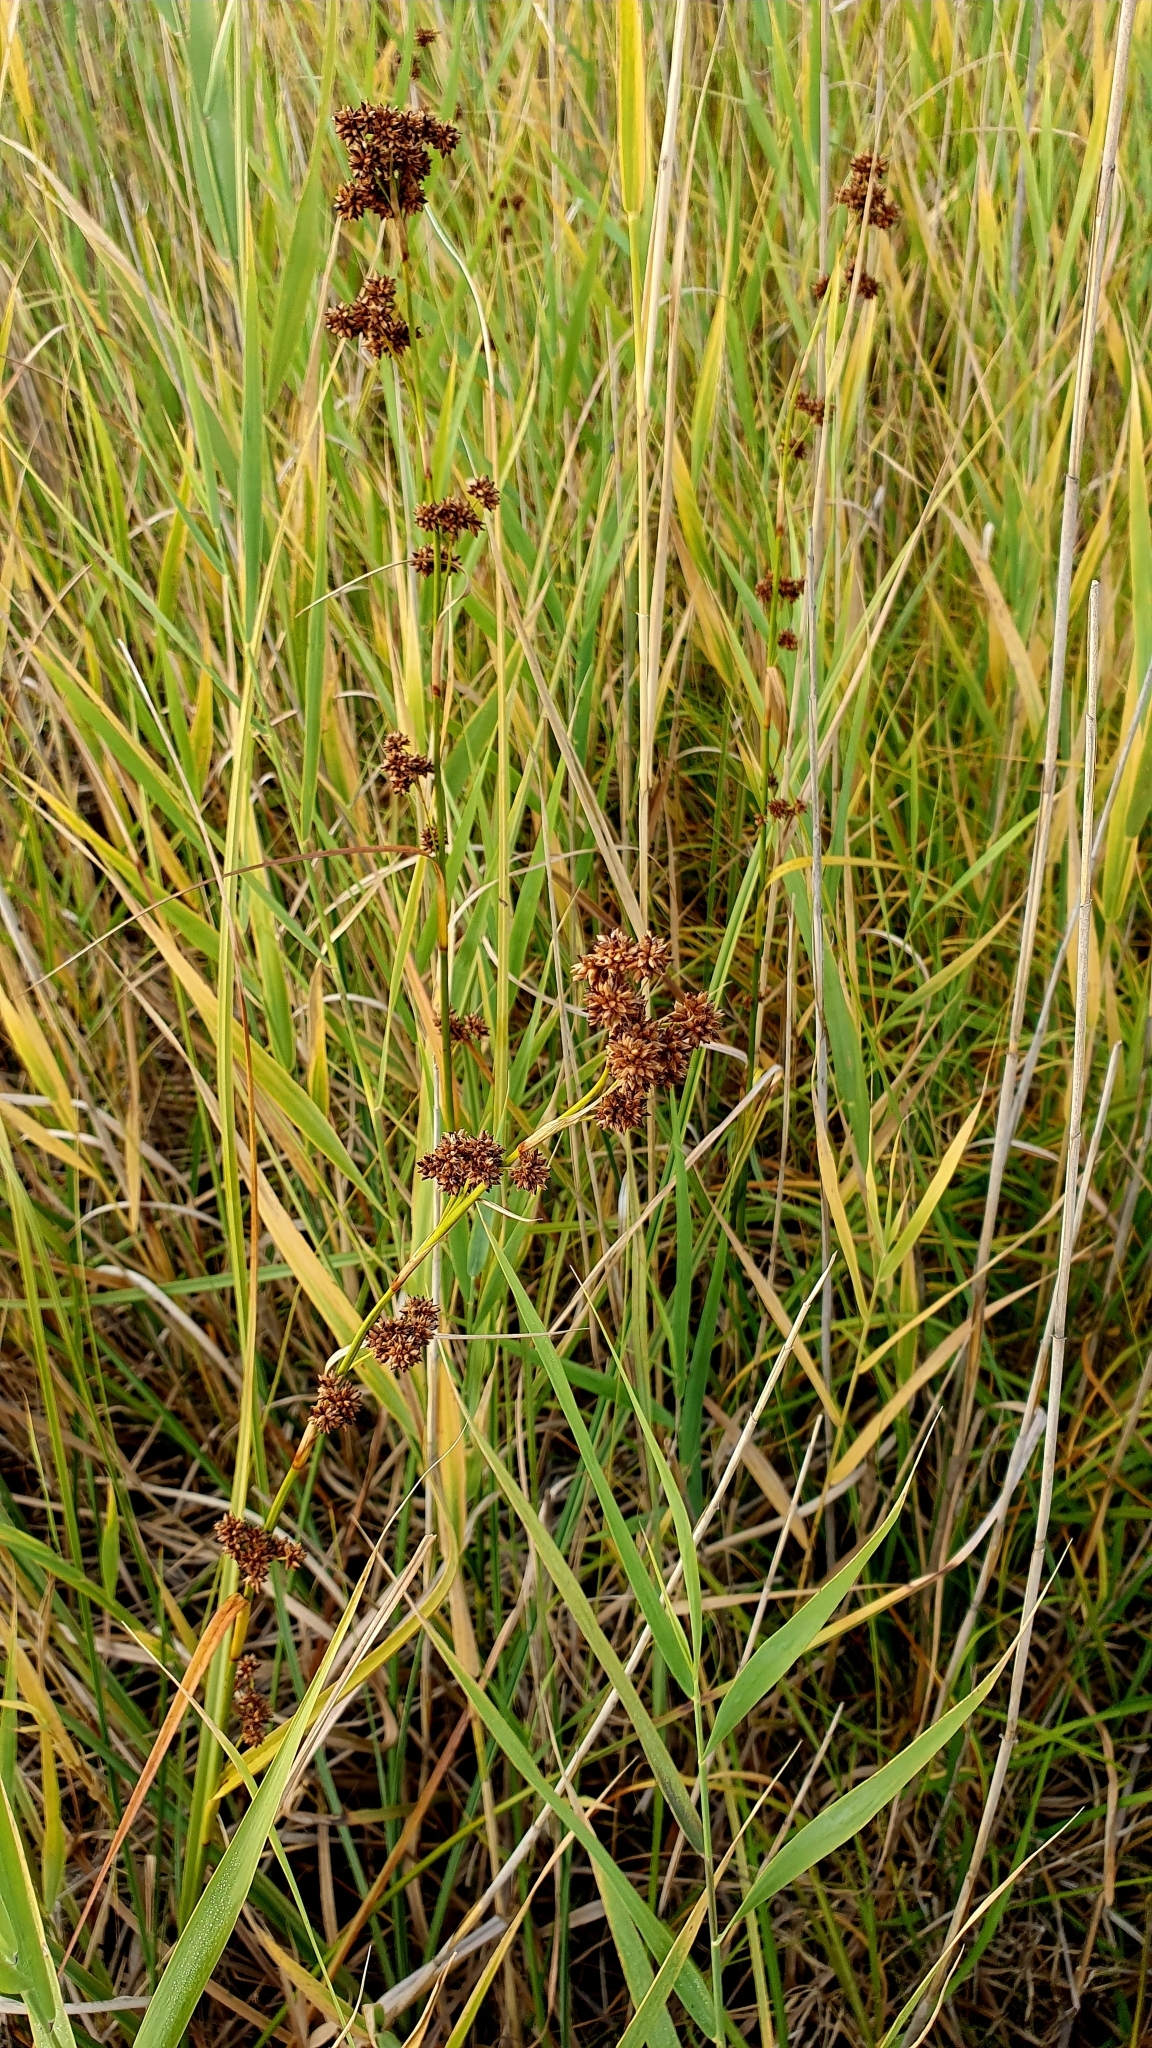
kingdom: Plantae
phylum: Tracheophyta
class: Liliopsida
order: Poales
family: Cyperaceae
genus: Cladium
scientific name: Cladium mariscus
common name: Great fen-sedge
